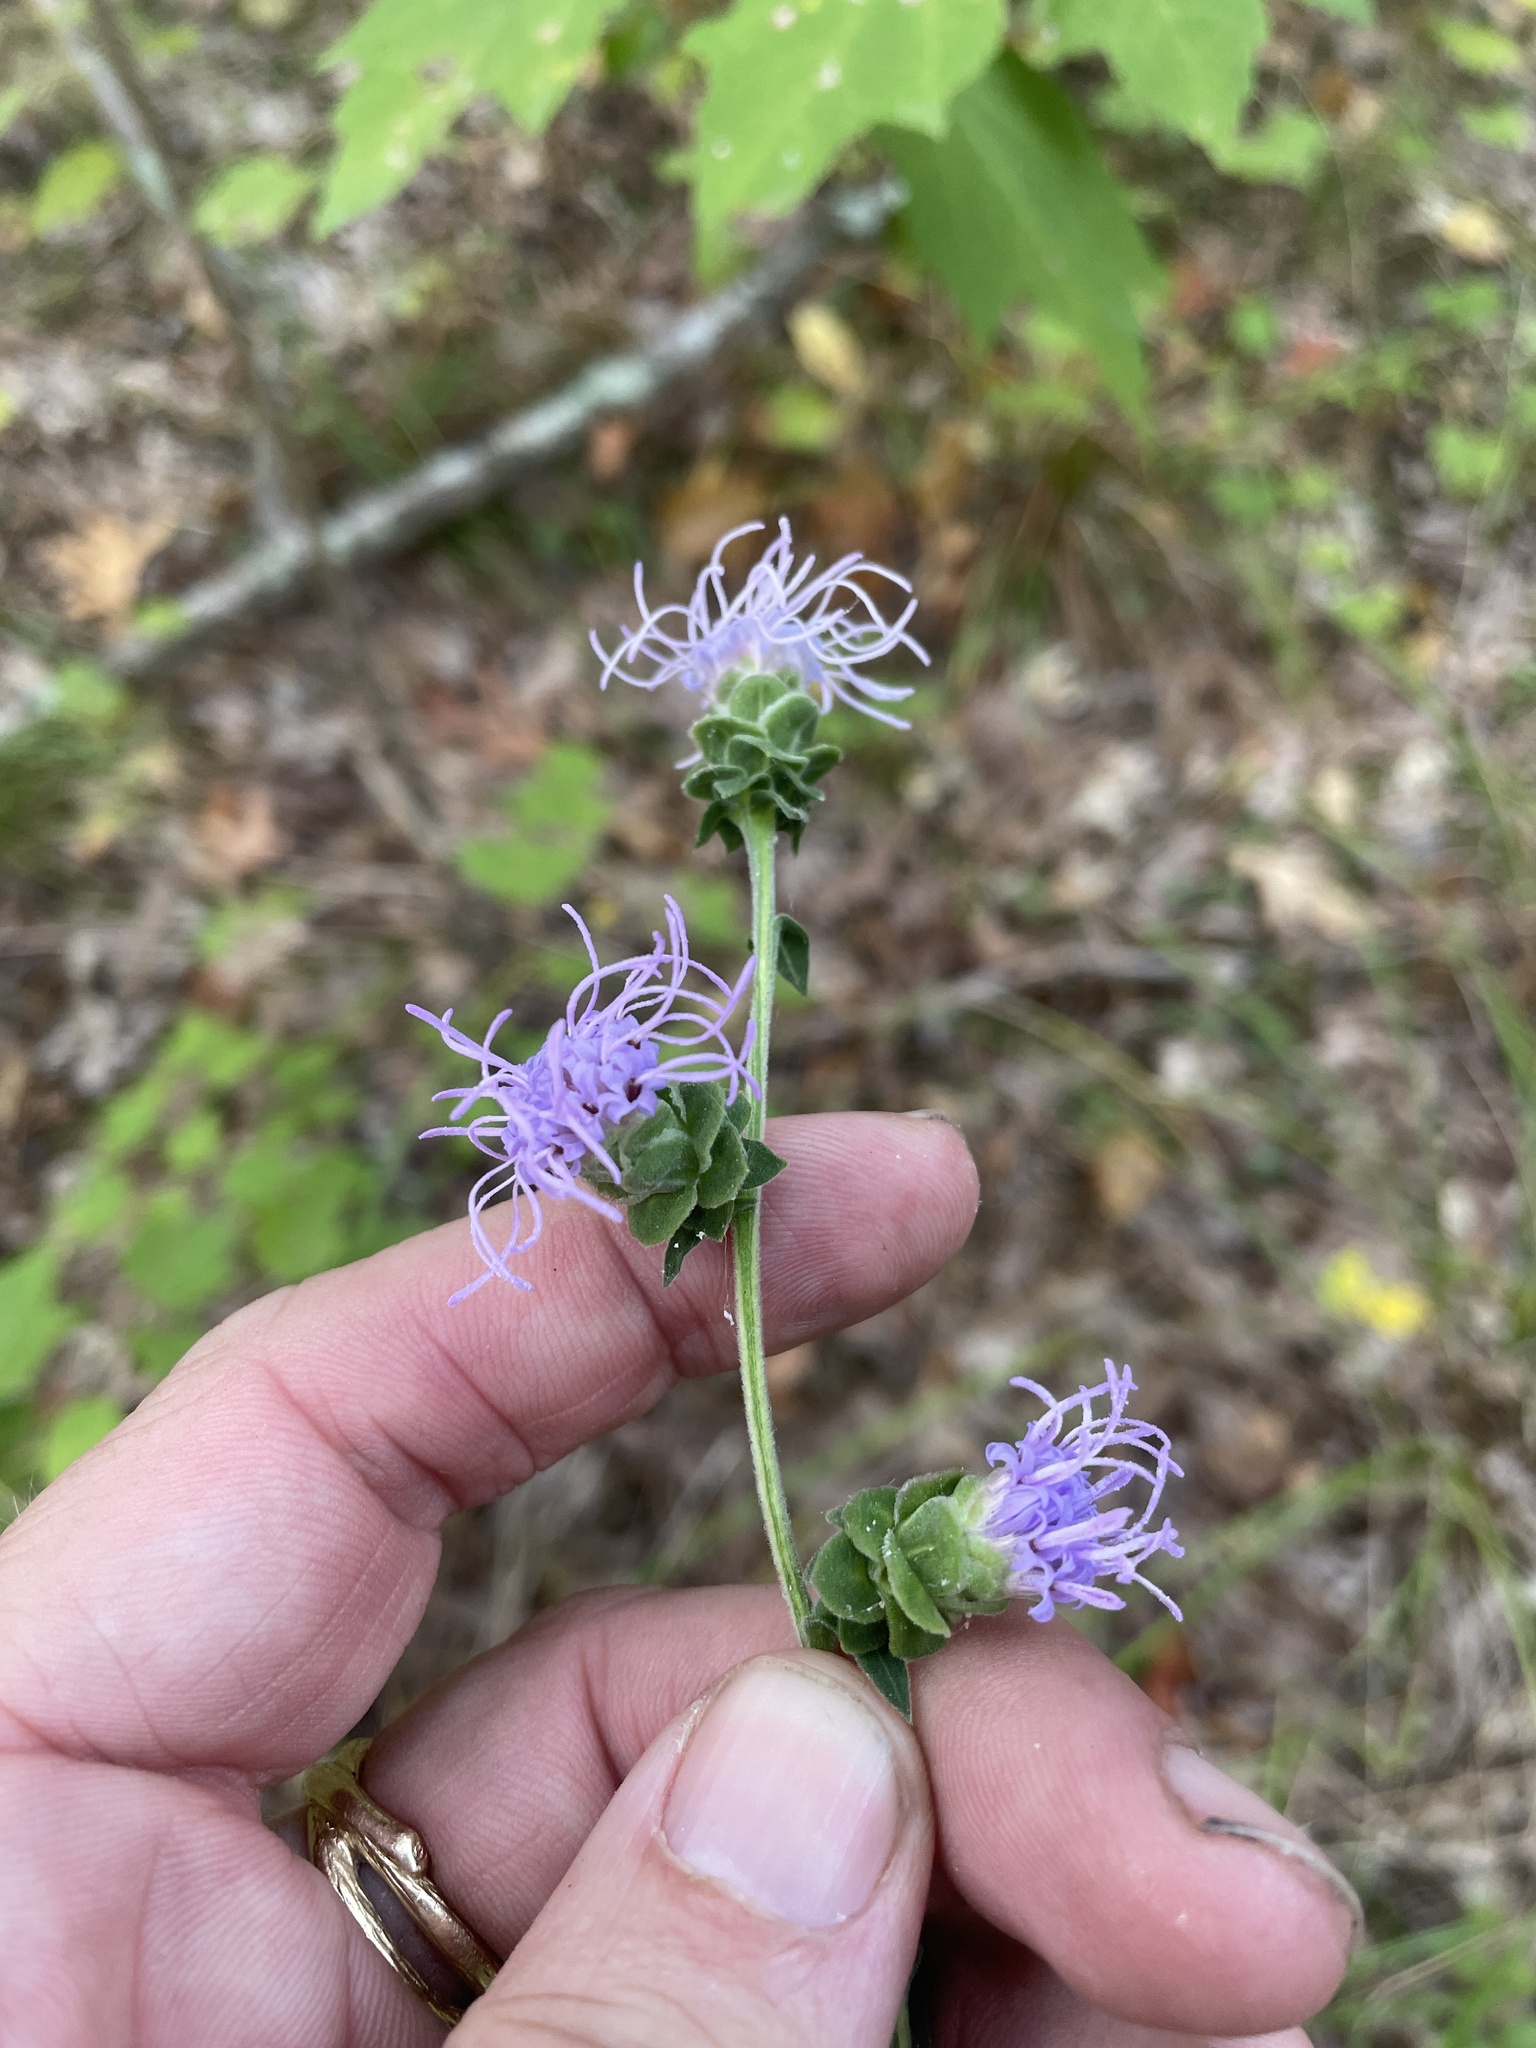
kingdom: Plantae
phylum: Tracheophyta
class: Magnoliopsida
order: Asterales
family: Asteraceae
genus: Liatris
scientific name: Liatris squarrulosa
